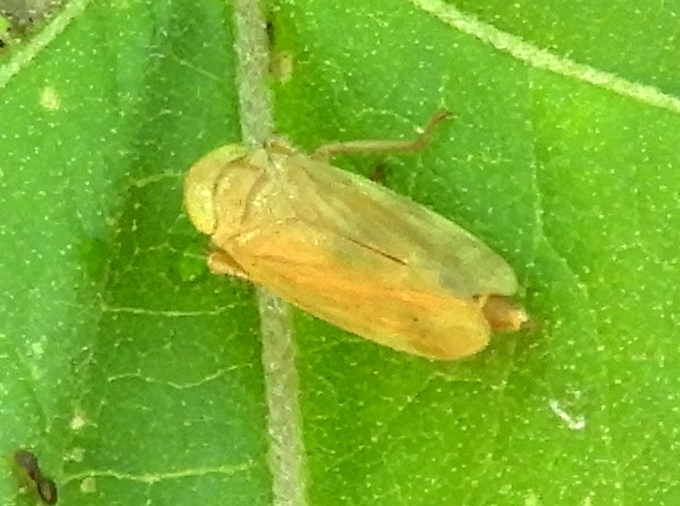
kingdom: Animalia
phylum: Arthropoda
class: Insecta
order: Hemiptera
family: Cicadellidae
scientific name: Cicadellidae
